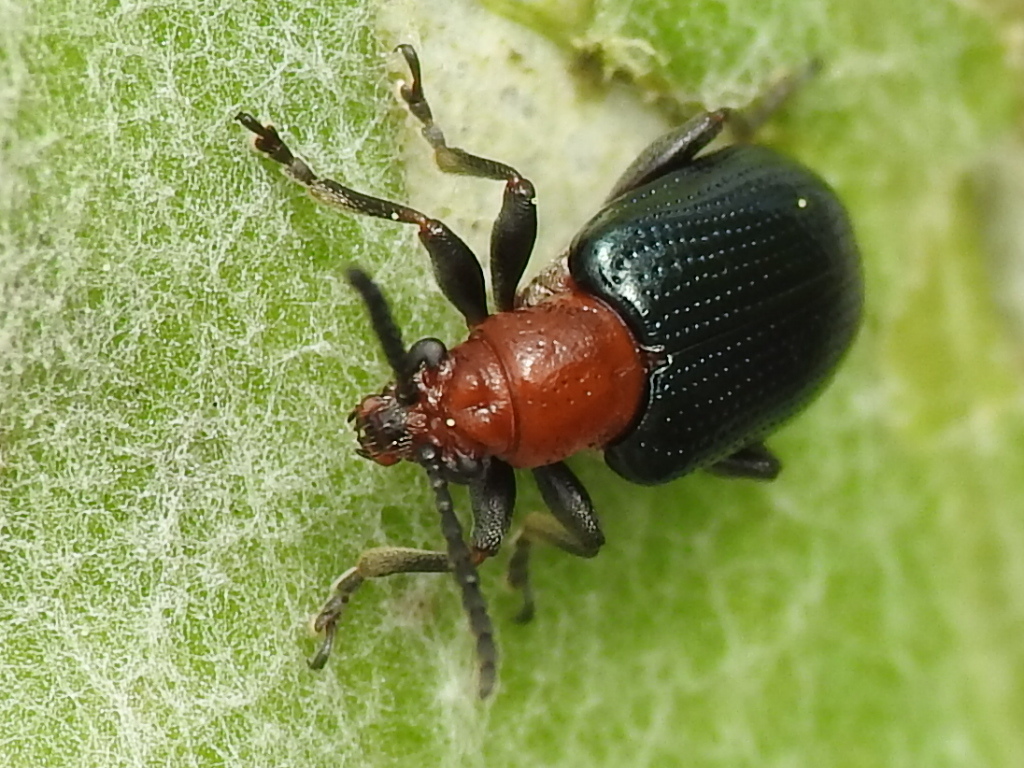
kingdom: Animalia
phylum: Arthropoda
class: Insecta
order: Coleoptera
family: Chrysomelidae
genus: Oulema
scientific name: Oulema palustris
